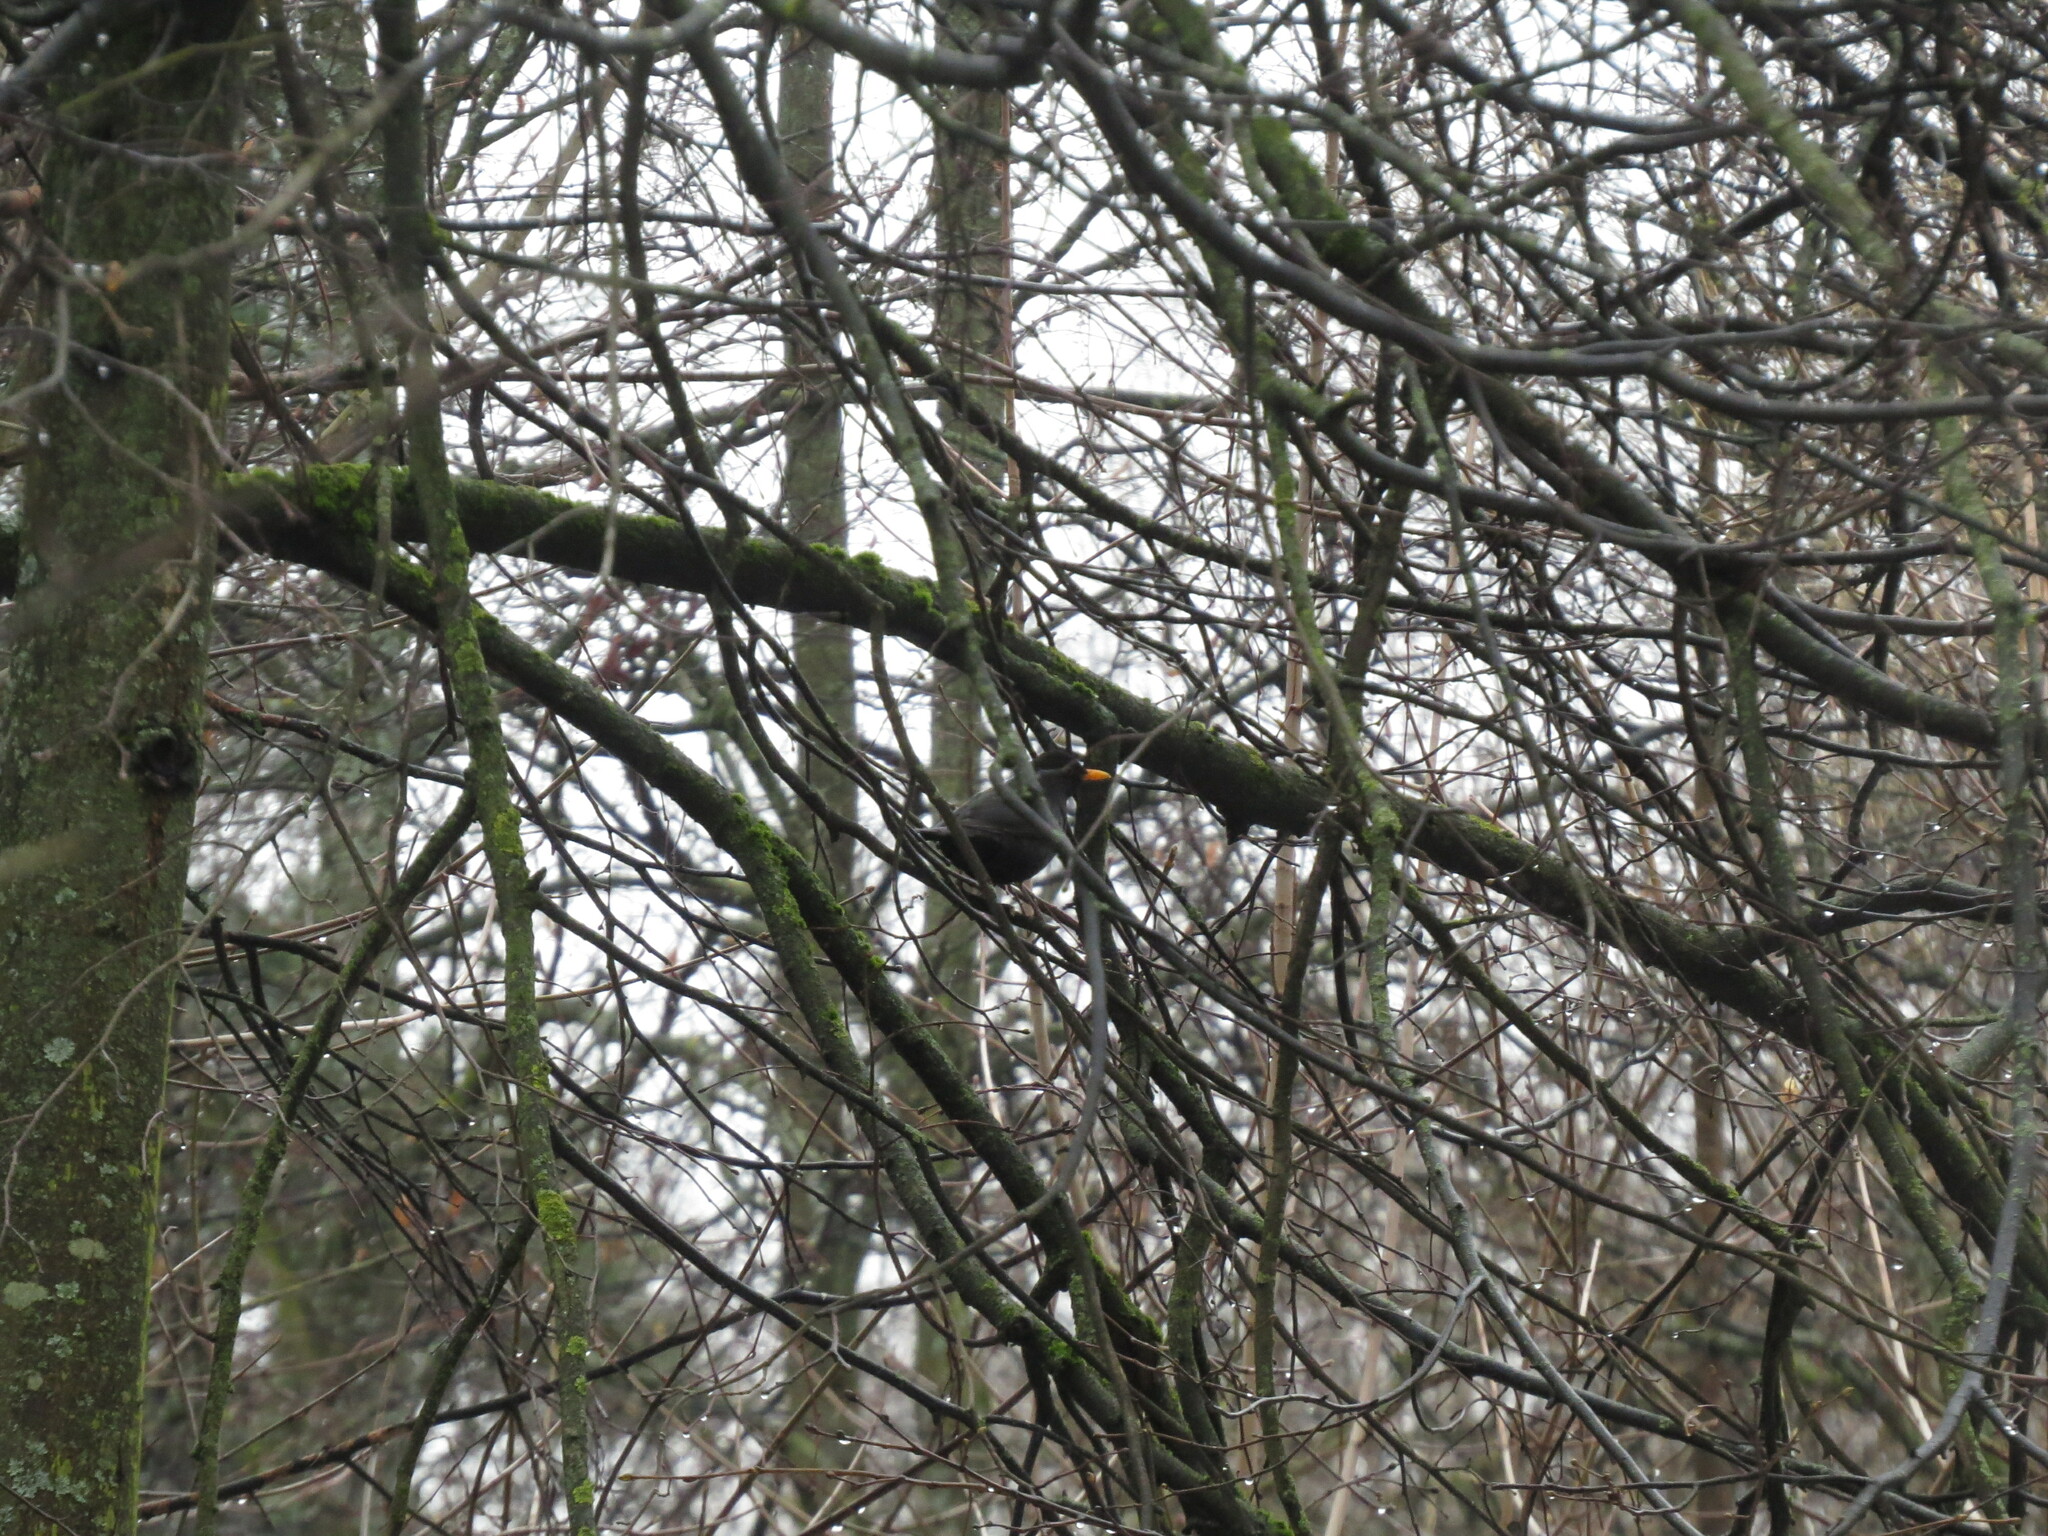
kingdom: Animalia
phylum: Chordata
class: Aves
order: Passeriformes
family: Turdidae
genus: Turdus
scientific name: Turdus merula
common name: Common blackbird
